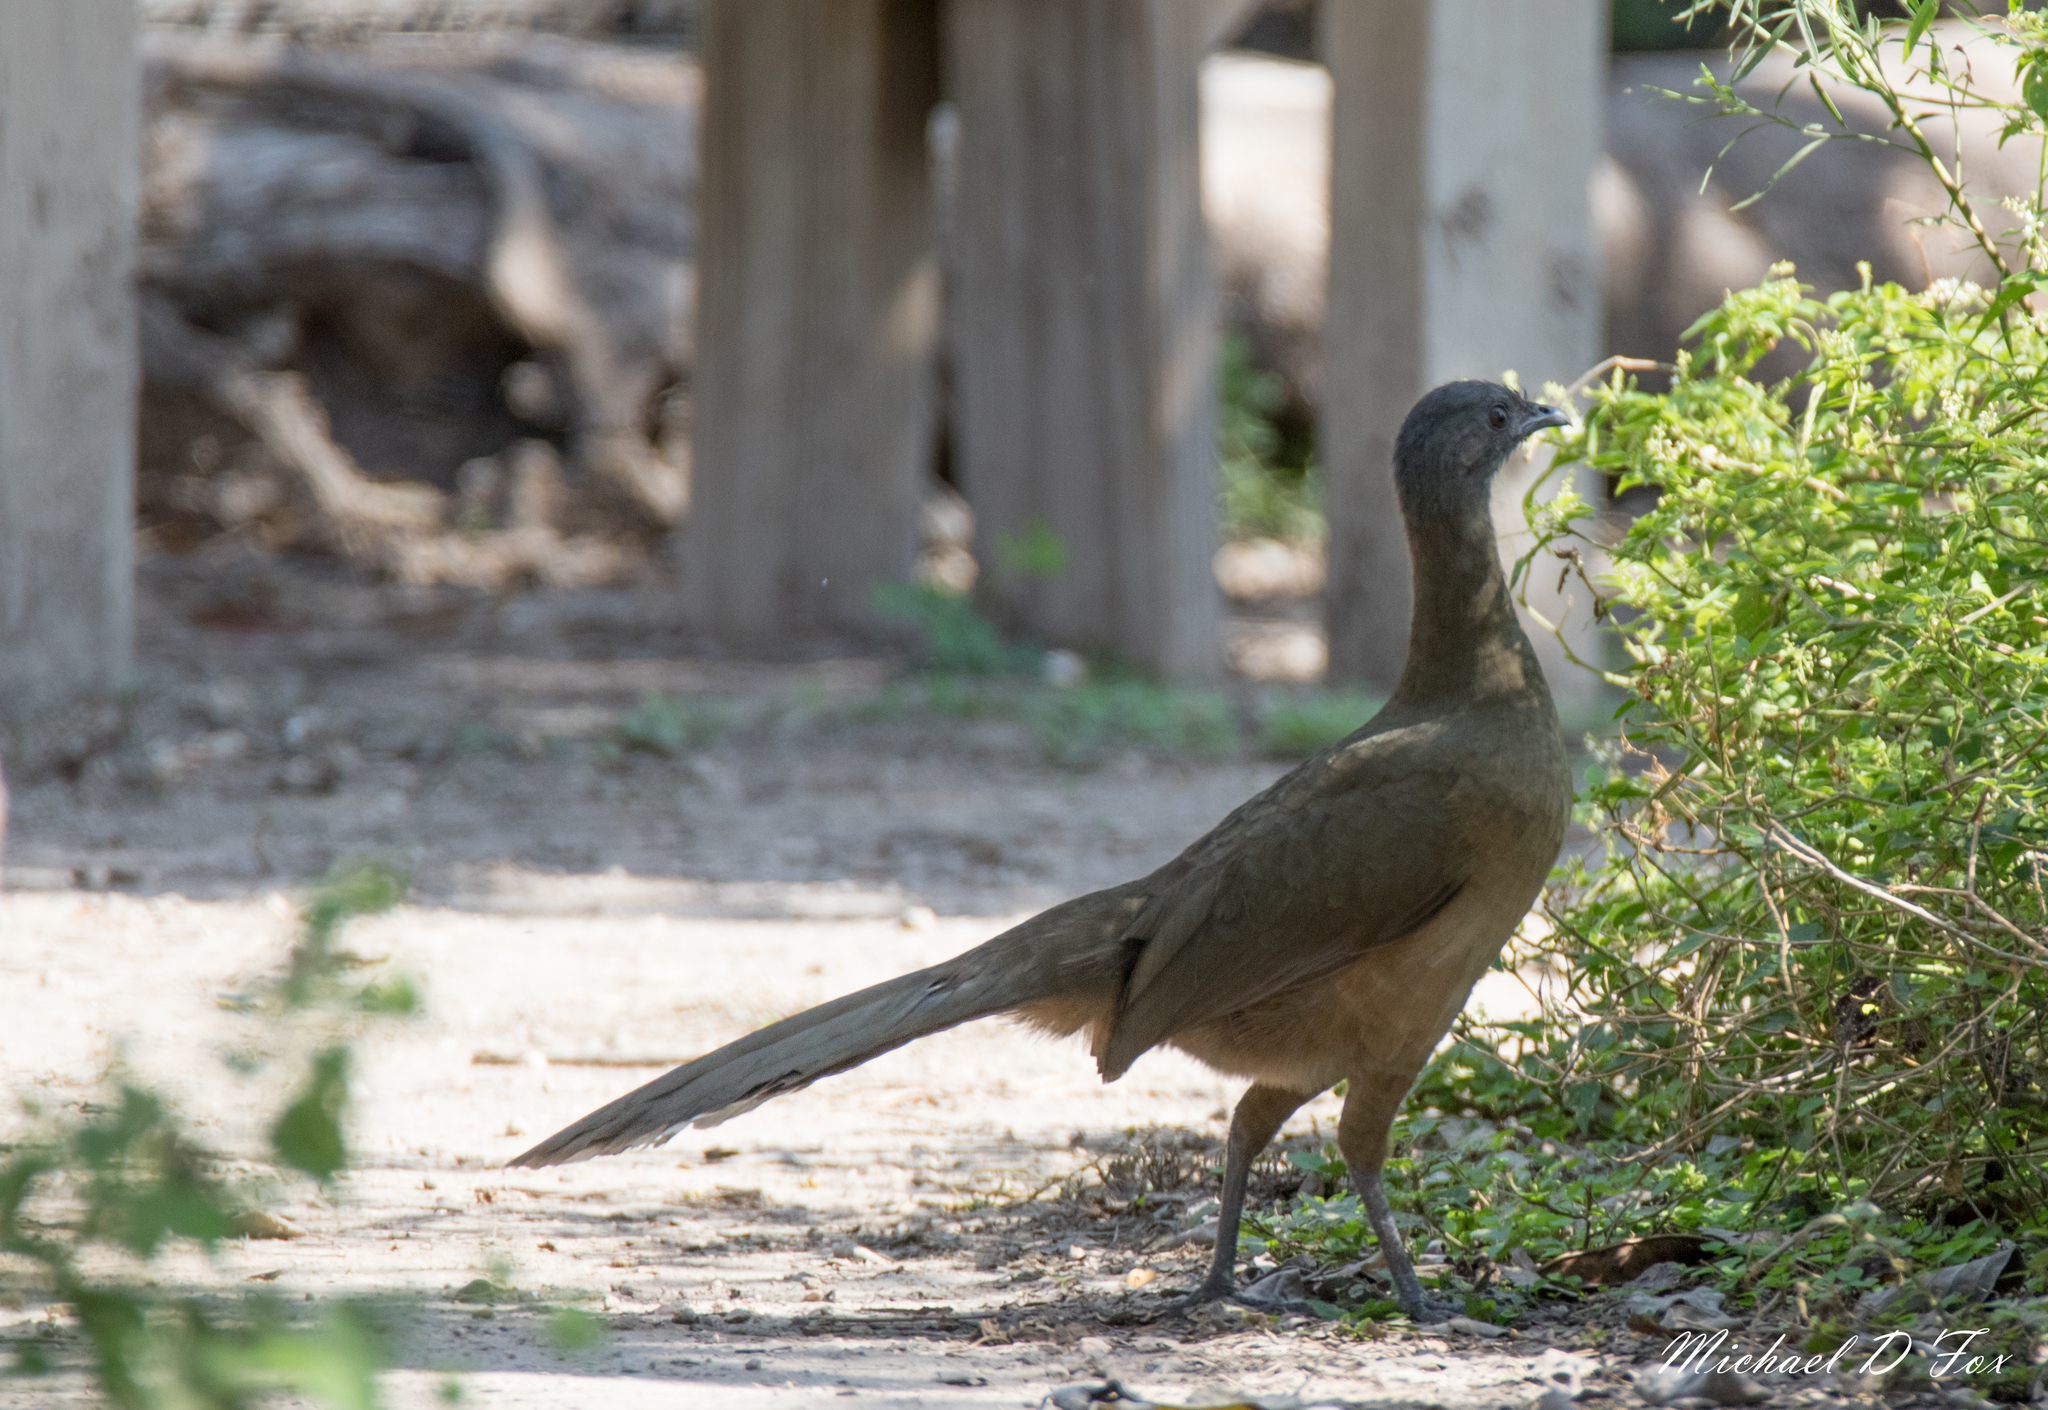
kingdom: Animalia
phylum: Chordata
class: Aves
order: Galliformes
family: Cracidae
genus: Ortalis
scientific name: Ortalis vetula
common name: Plain chachalaca
